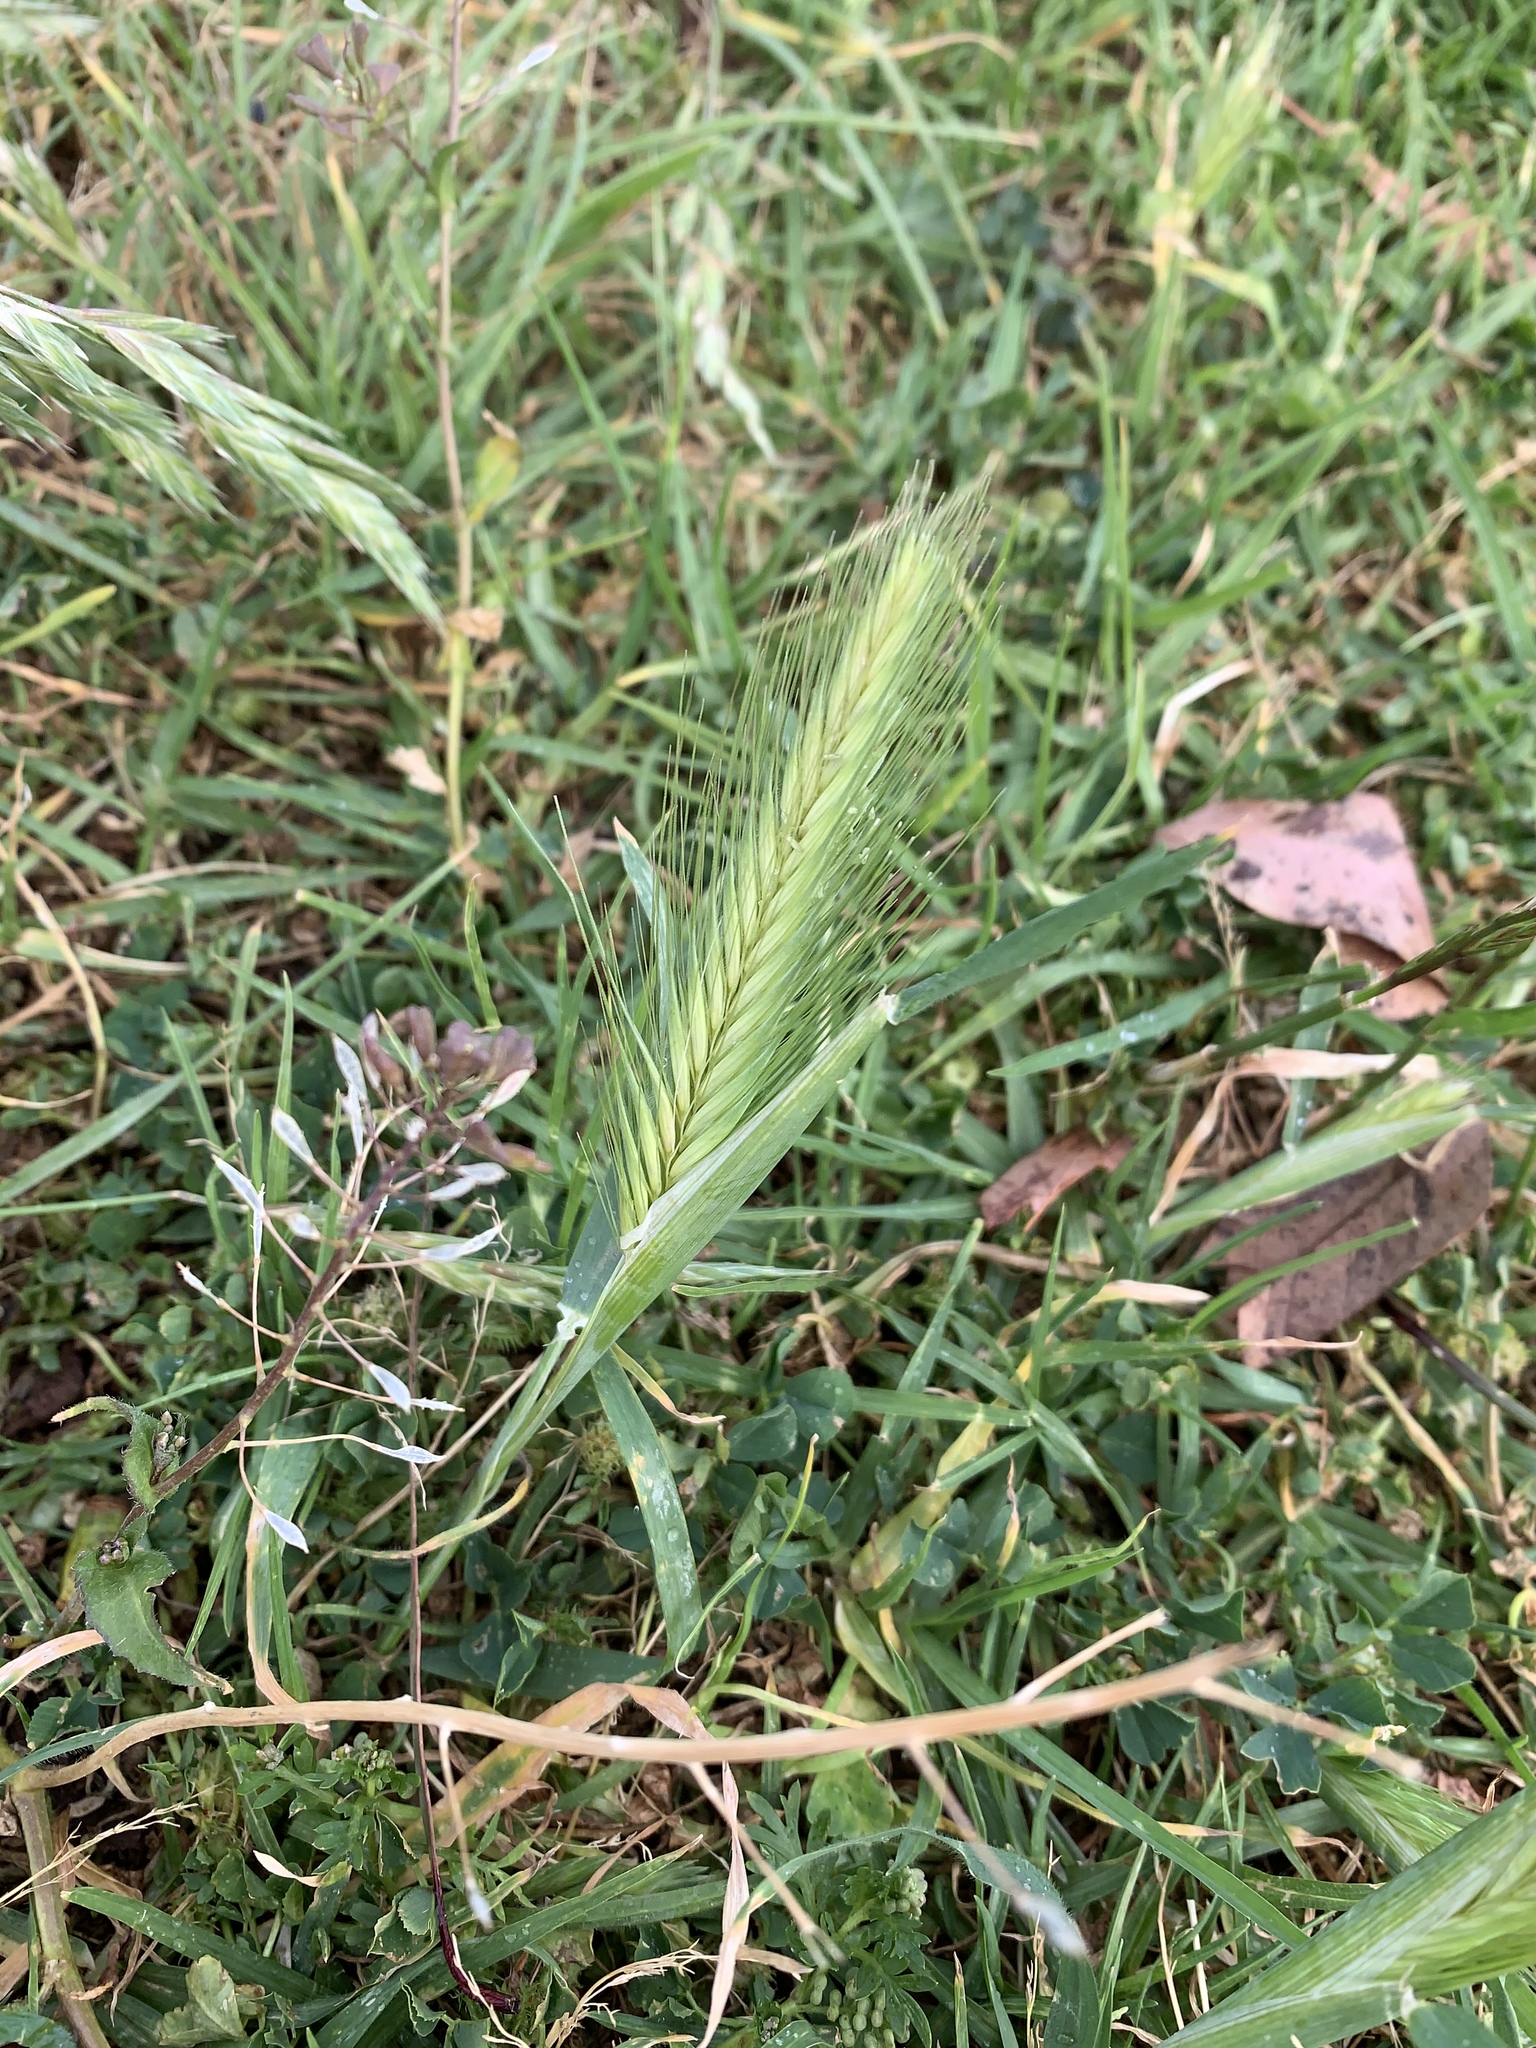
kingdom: Plantae
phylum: Tracheophyta
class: Liliopsida
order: Poales
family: Poaceae
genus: Hordeum
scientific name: Hordeum murinum
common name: Wall barley
